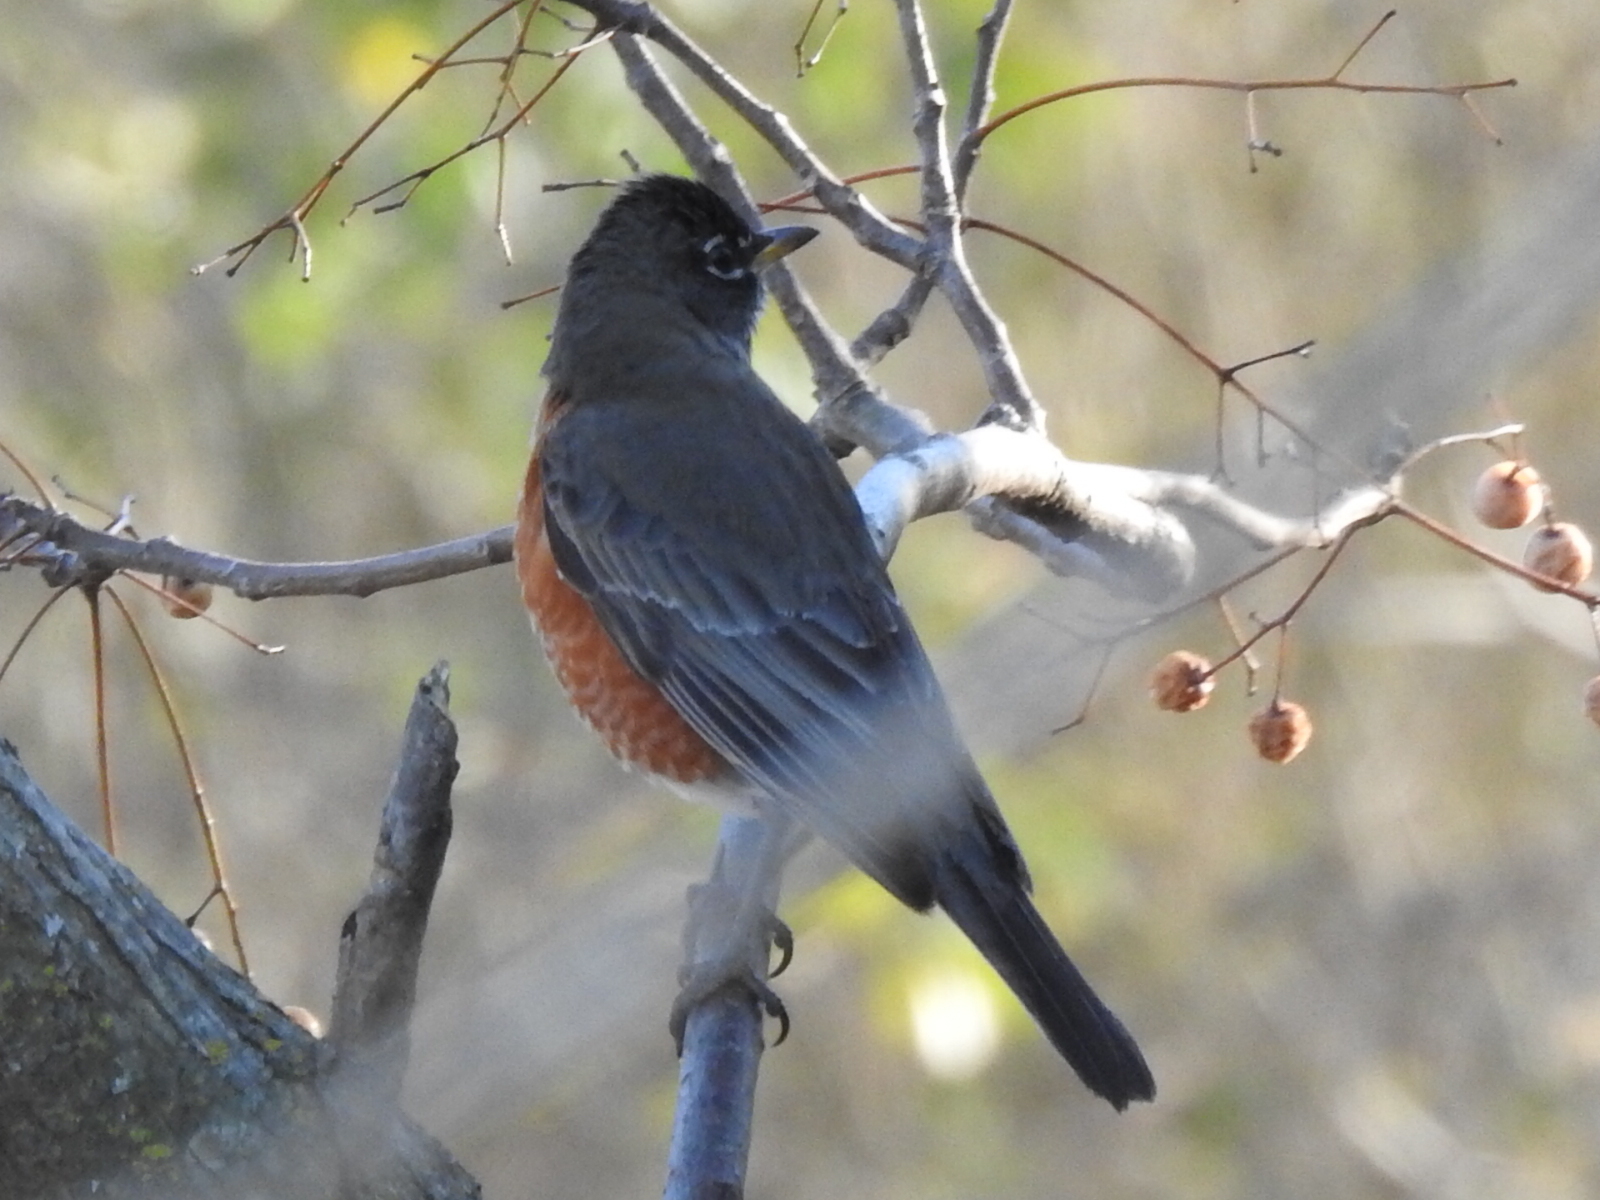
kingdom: Animalia
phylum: Chordata
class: Aves
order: Passeriformes
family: Turdidae
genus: Turdus
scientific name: Turdus migratorius
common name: American robin
